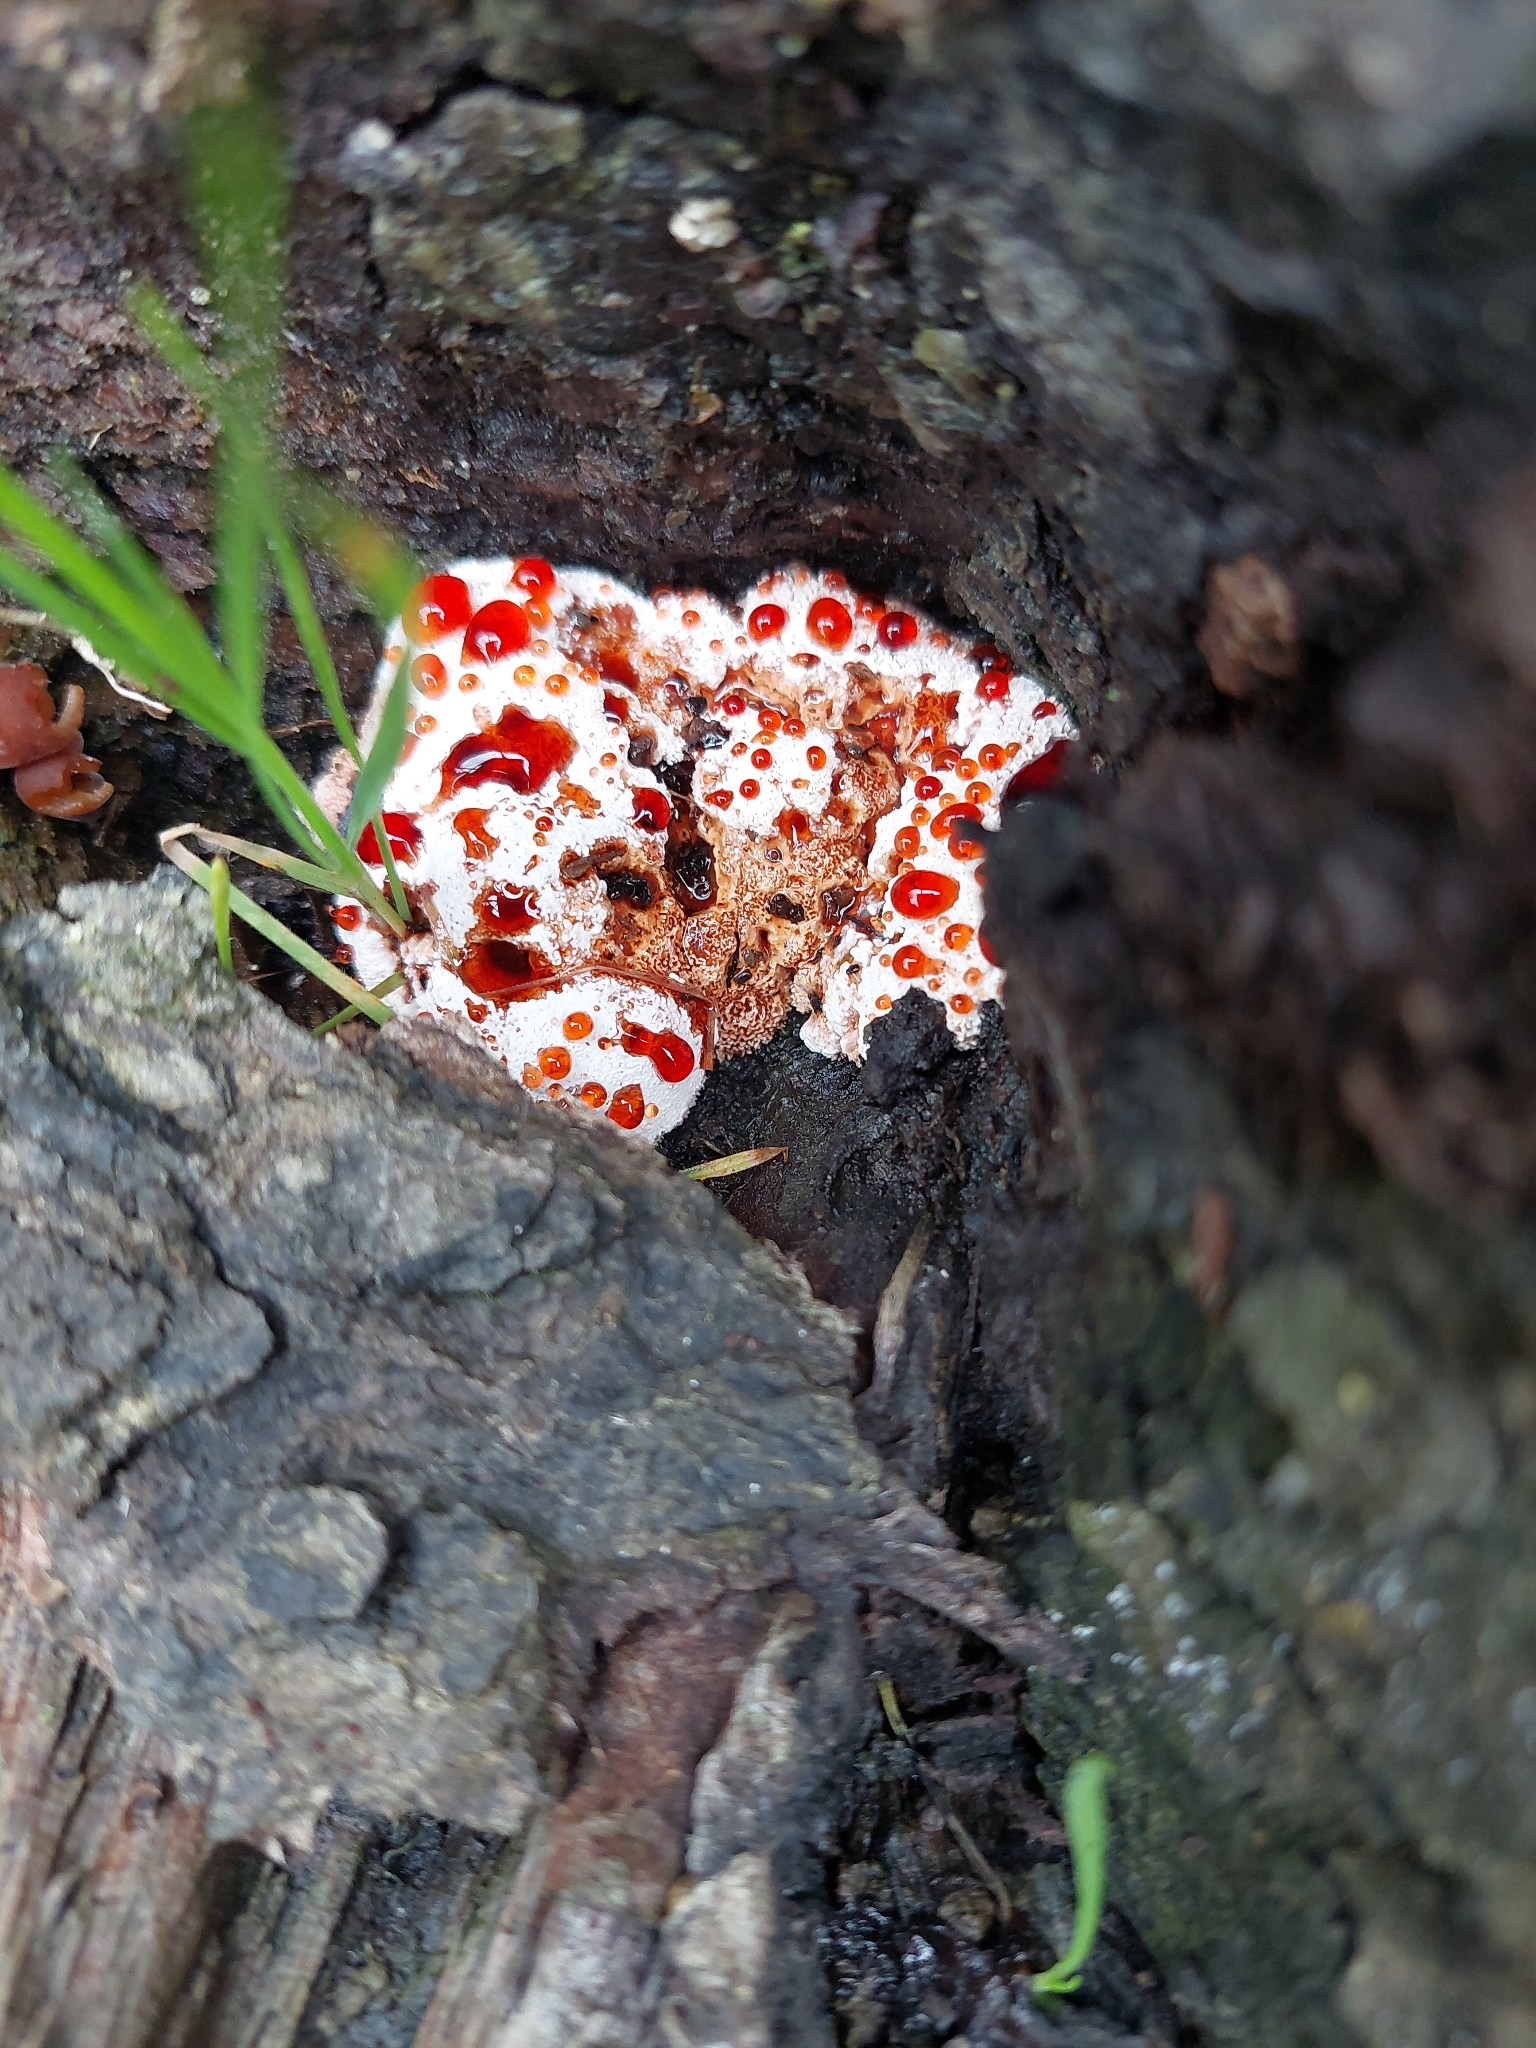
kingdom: Fungi
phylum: Basidiomycota
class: Agaricomycetes
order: Polyporales
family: Podoscyphaceae
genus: Abortiporus
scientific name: Abortiporus biennis
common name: Blushing rosette
